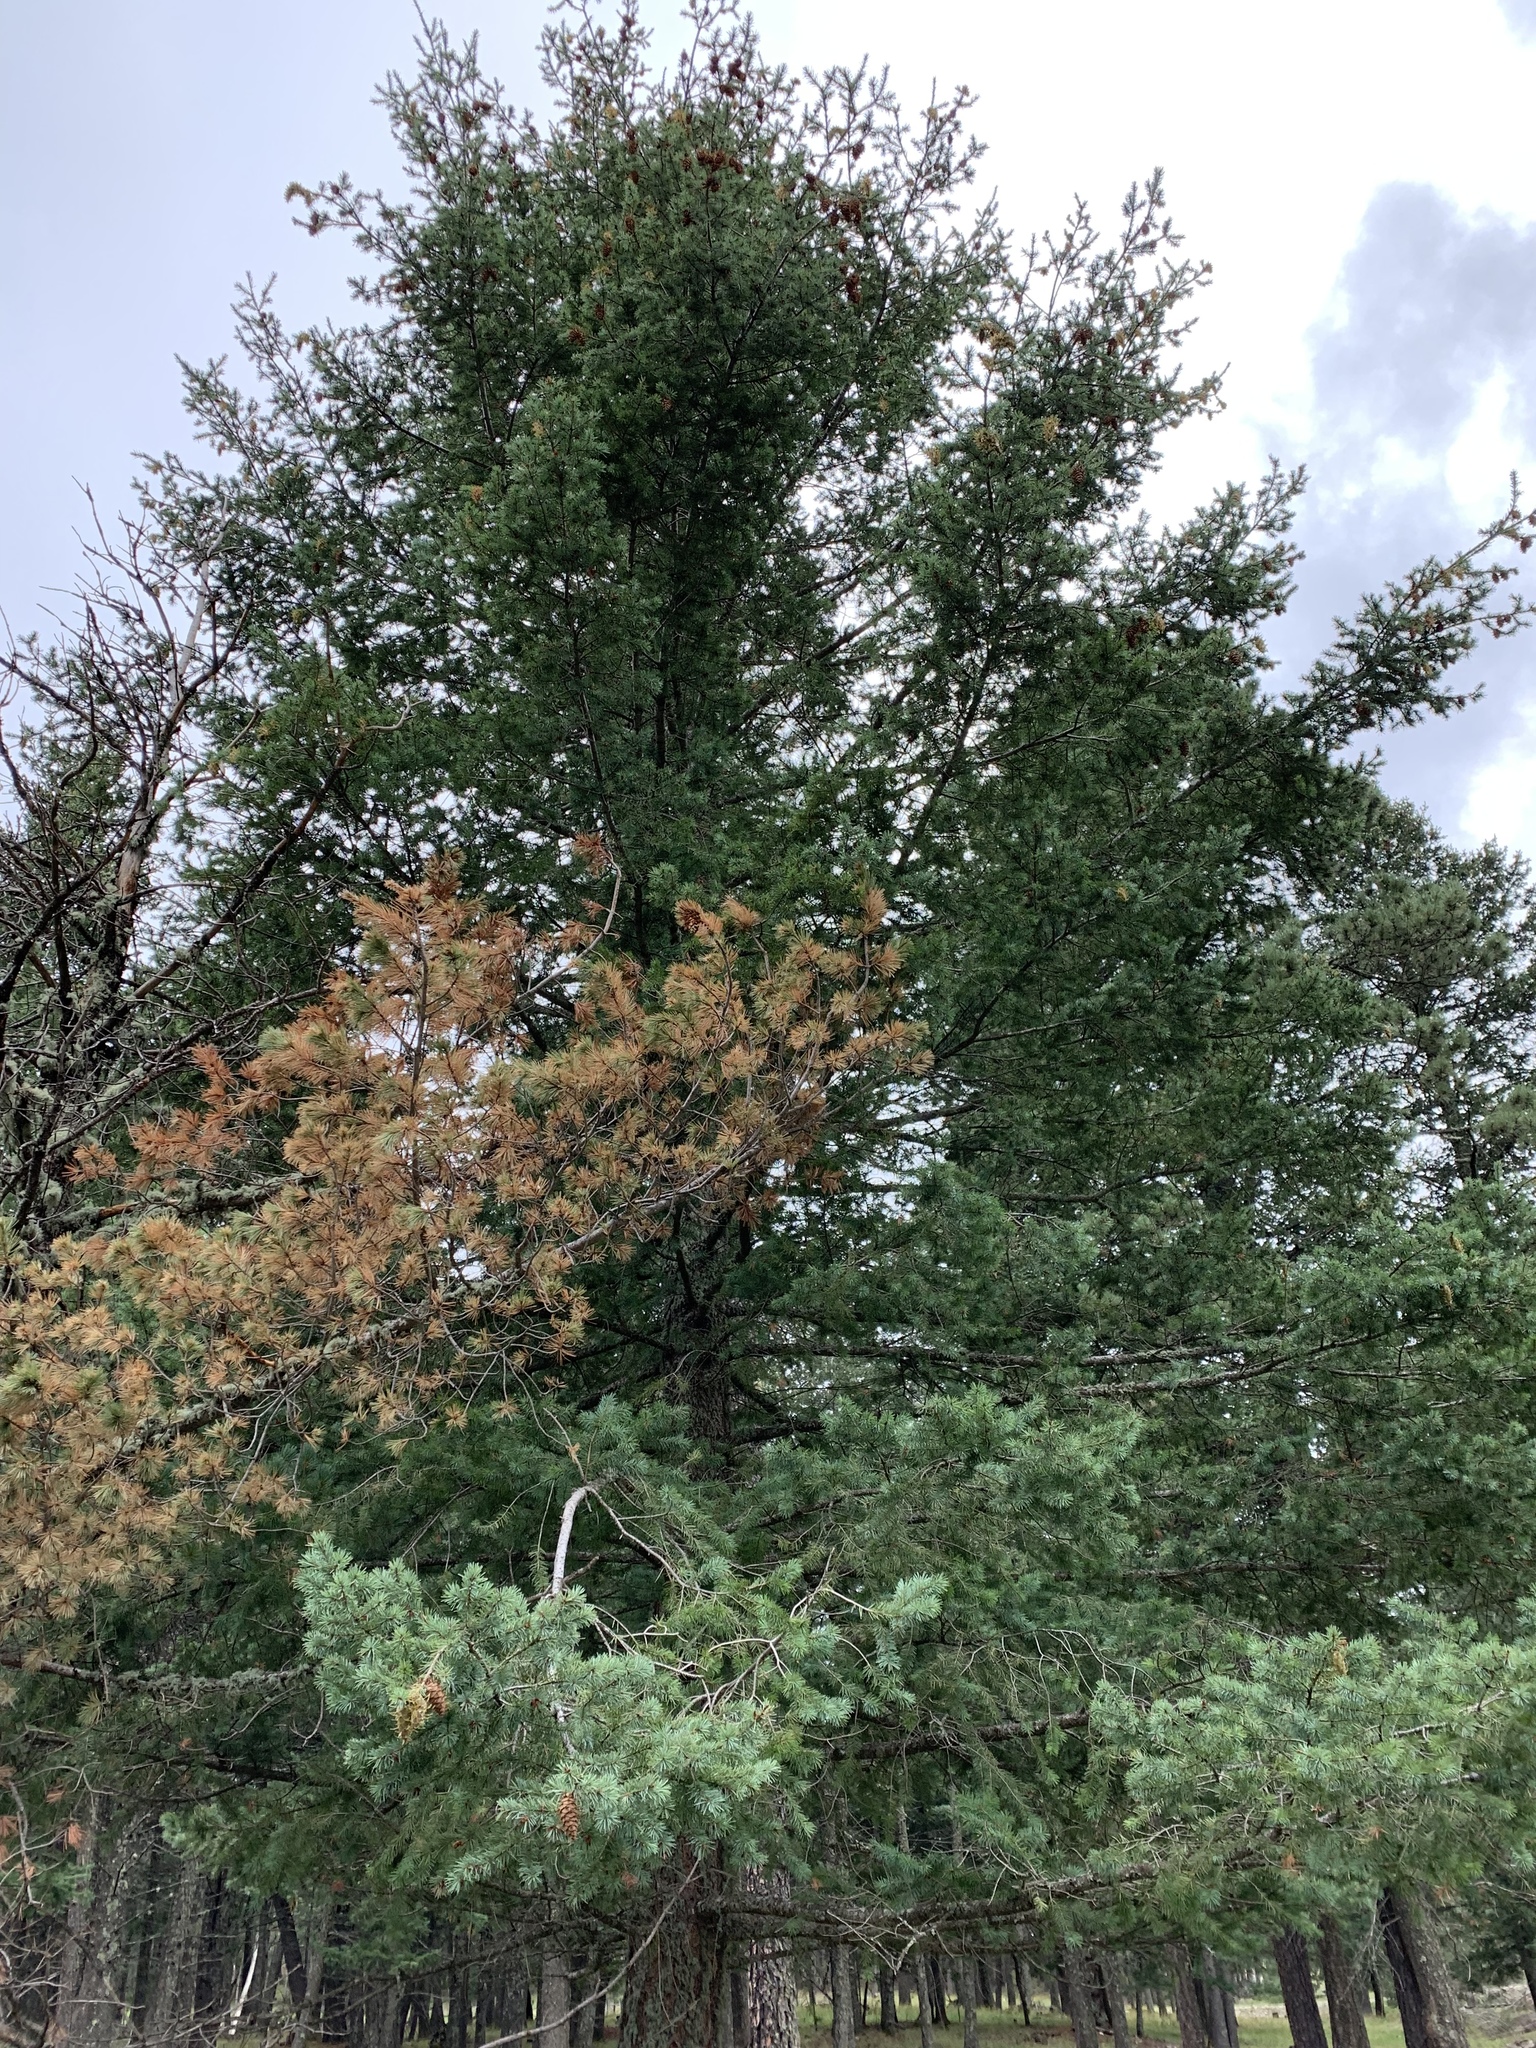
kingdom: Plantae
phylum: Tracheophyta
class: Pinopsida
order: Pinales
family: Pinaceae
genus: Pinus
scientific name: Pinus strobiformis
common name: Southwestern white pine
